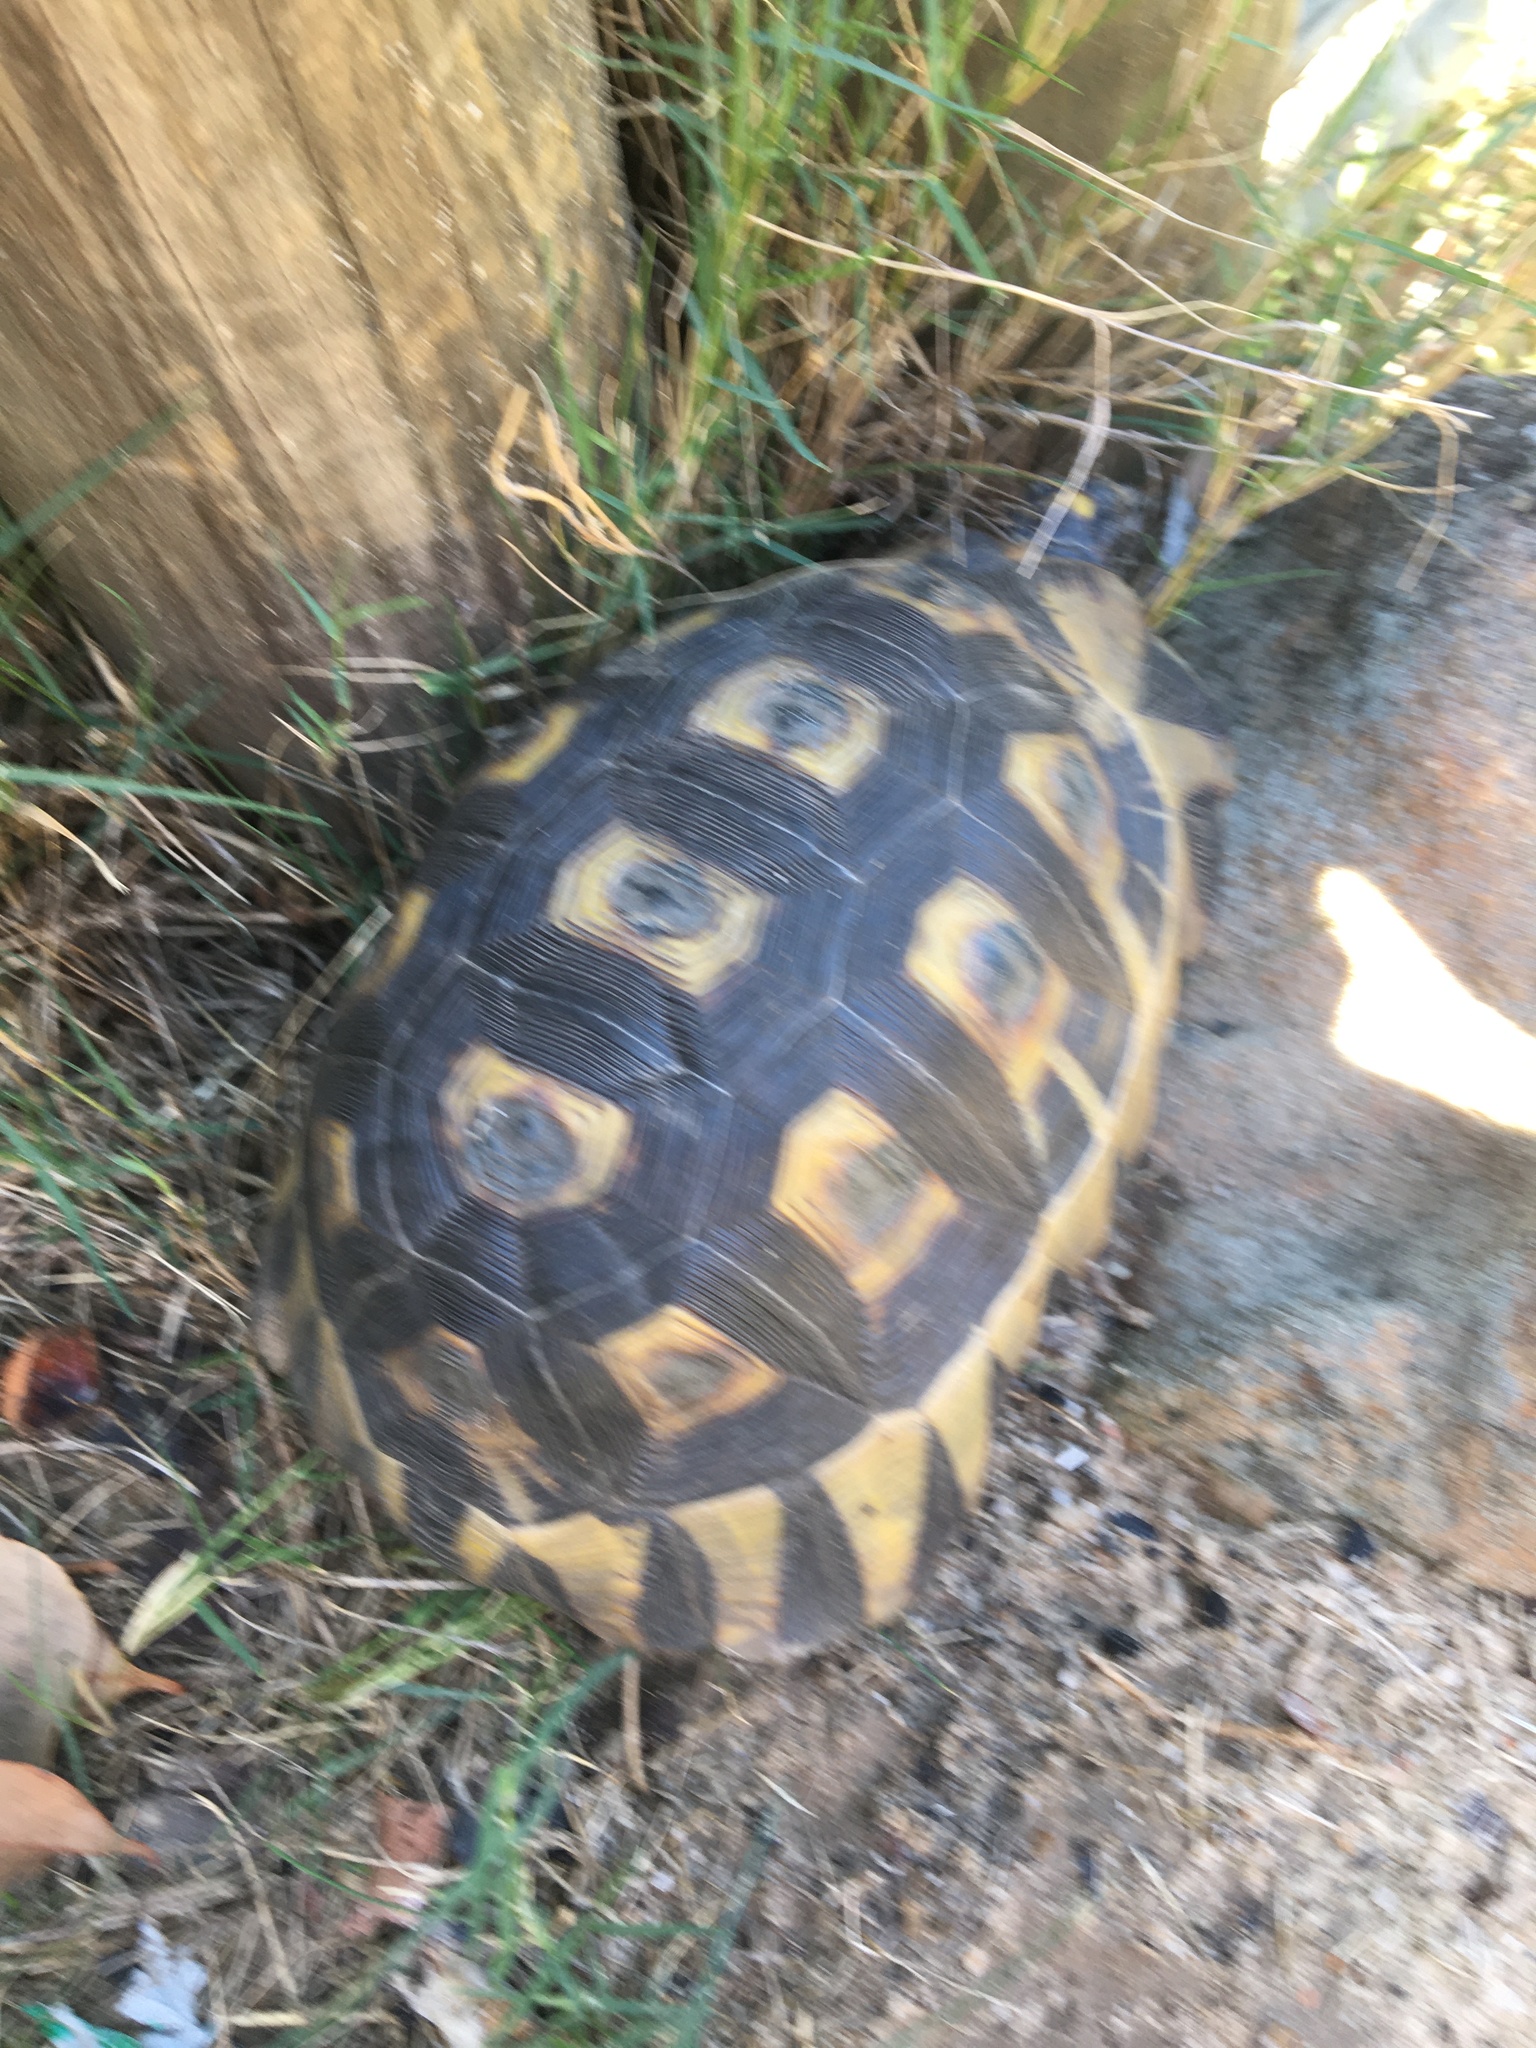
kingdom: Animalia
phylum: Chordata
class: Testudines
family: Testudinidae
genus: Chersina
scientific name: Chersina angulata
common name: South african bowsprit tortoise
